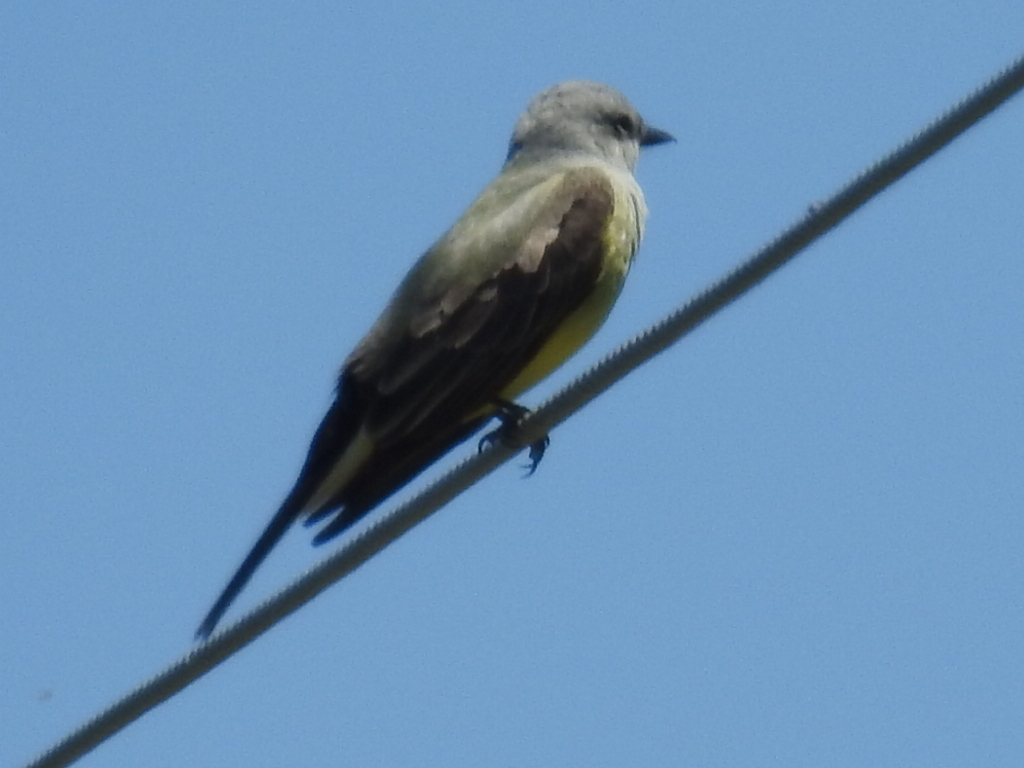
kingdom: Animalia
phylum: Chordata
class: Aves
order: Passeriformes
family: Tyrannidae
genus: Tyrannus
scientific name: Tyrannus verticalis
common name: Western kingbird
